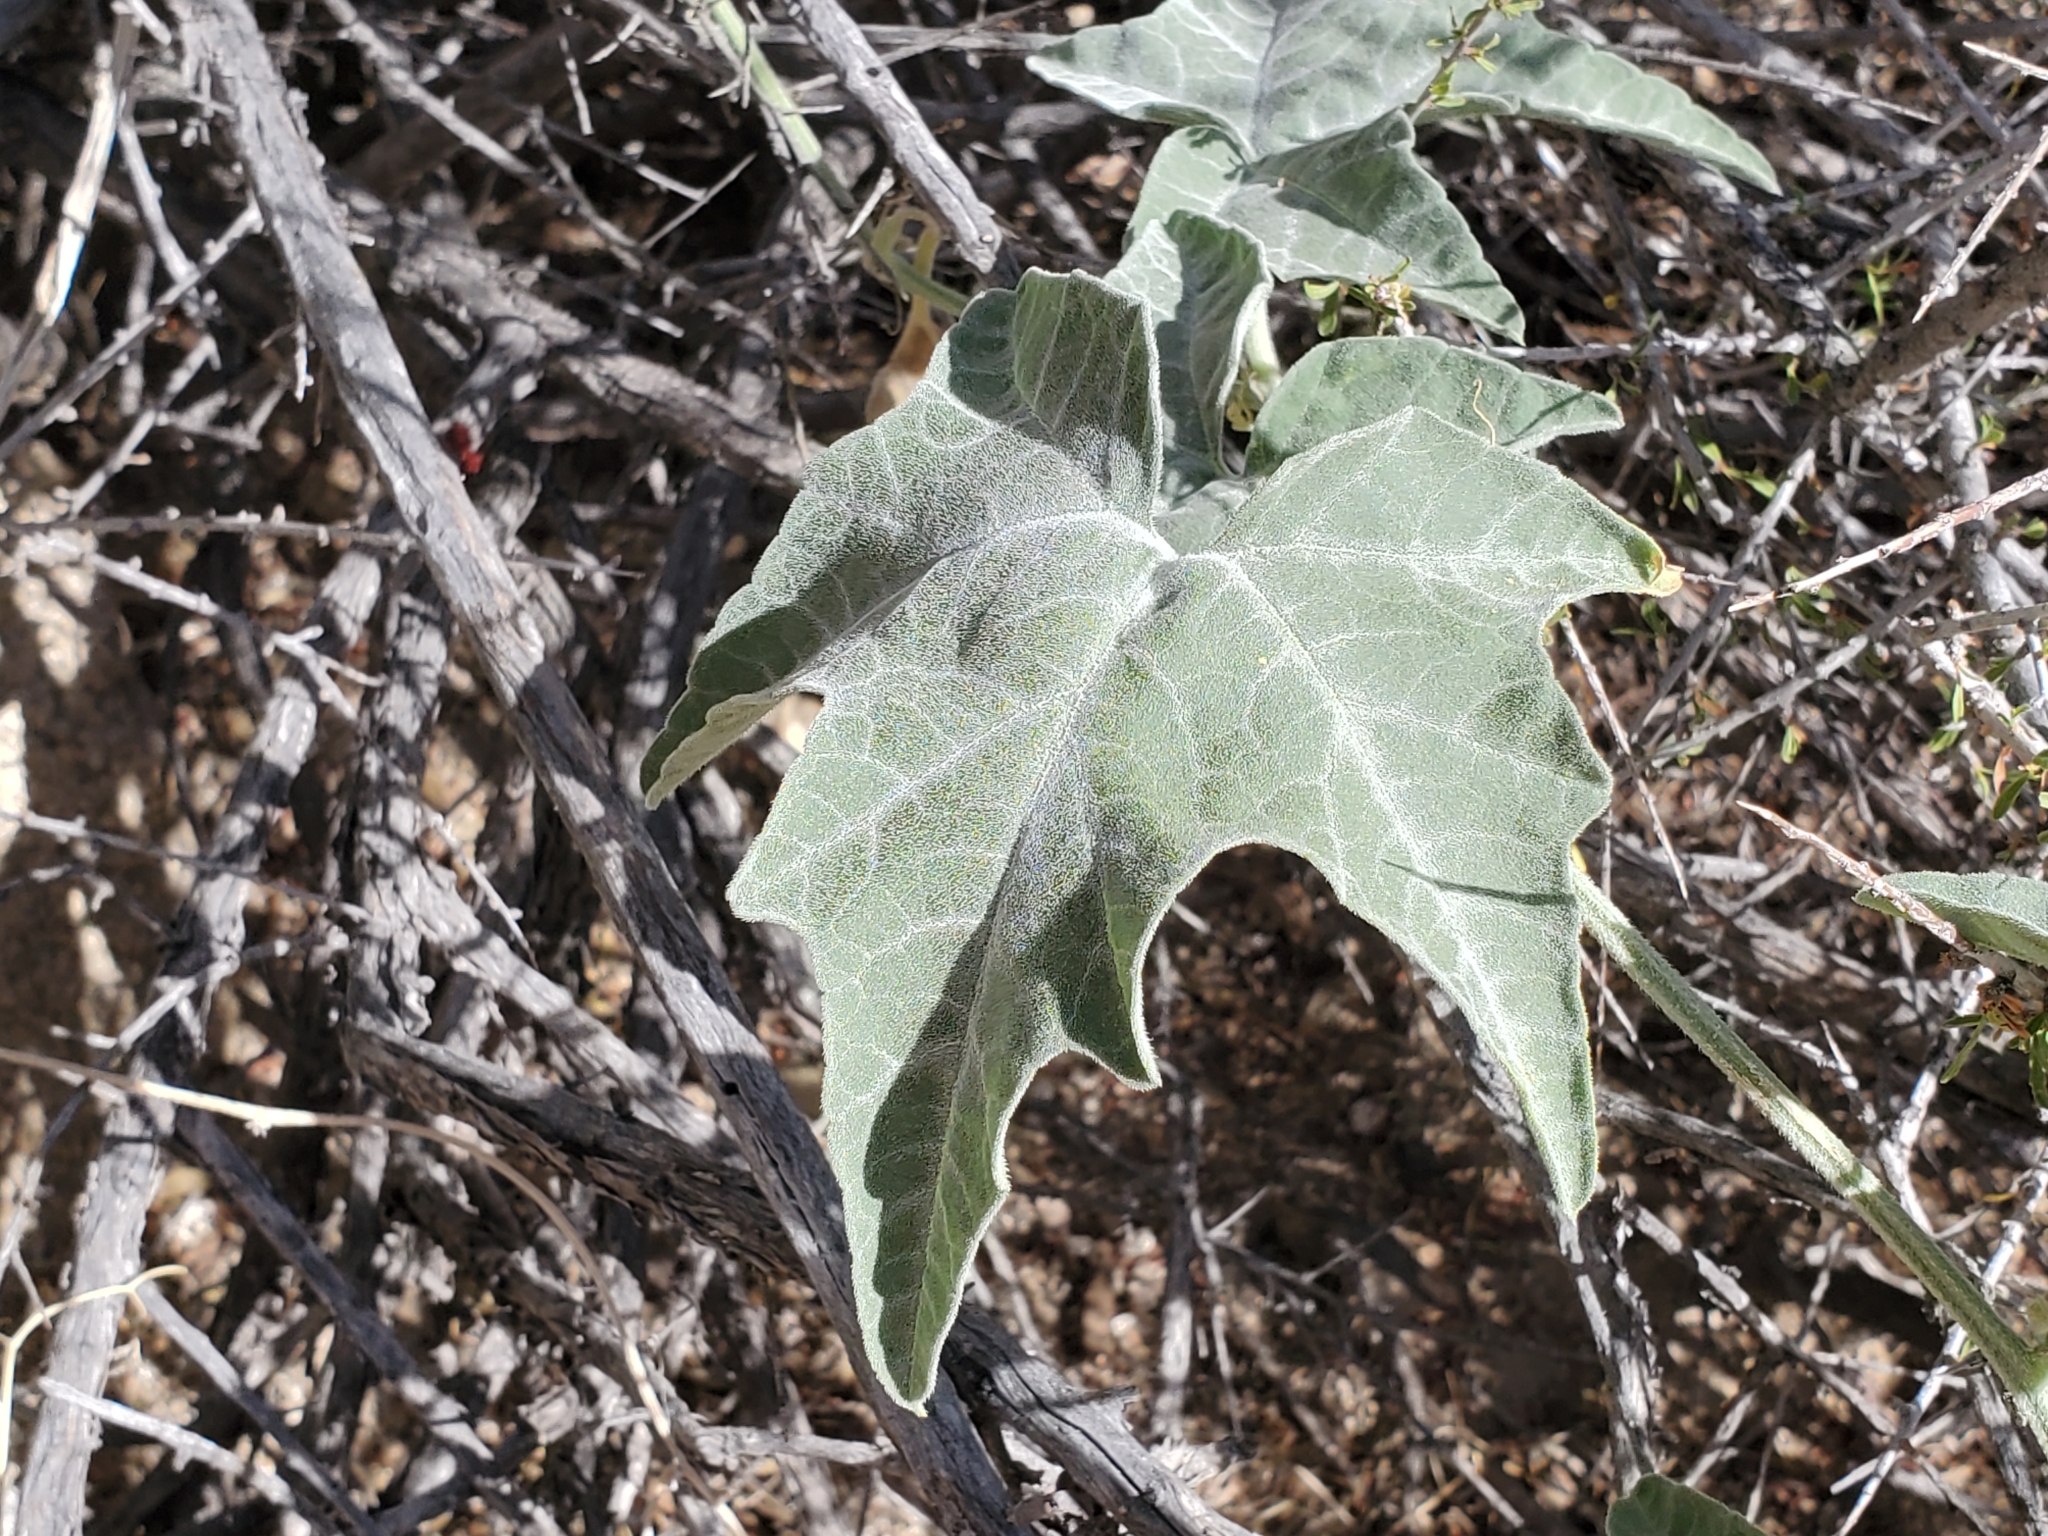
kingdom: Plantae
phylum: Tracheophyta
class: Magnoliopsida
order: Cucurbitales
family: Cucurbitaceae
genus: Cucurbita
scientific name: Cucurbita palmata
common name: Coyote-melon
